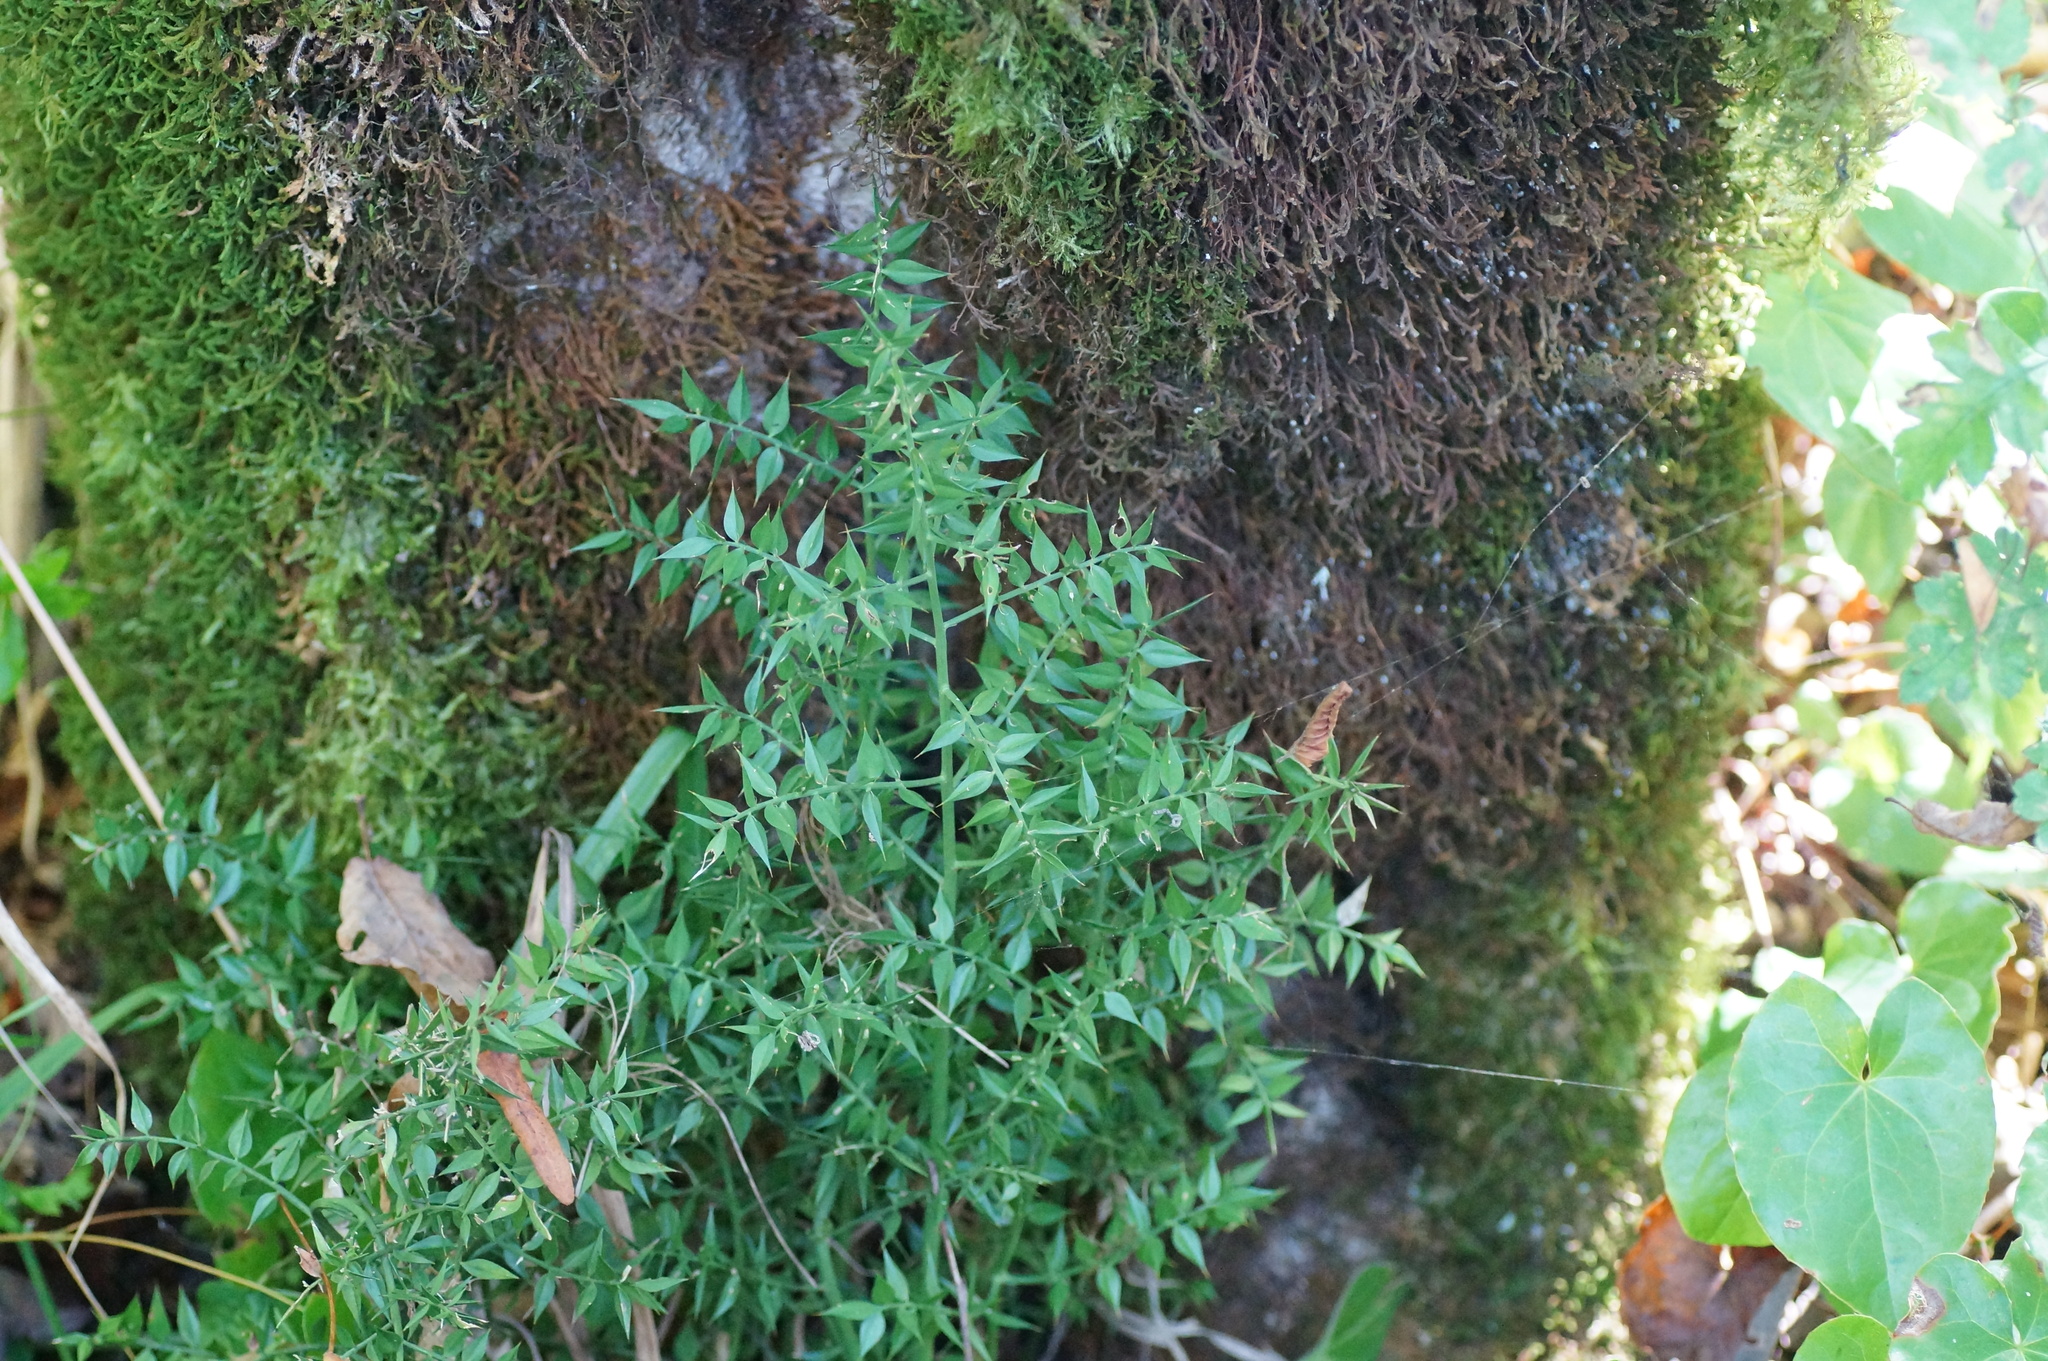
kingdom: Plantae
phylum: Tracheophyta
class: Liliopsida
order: Asparagales
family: Asparagaceae
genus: Ruscus
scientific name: Ruscus aculeatus
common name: Butcher's-broom
